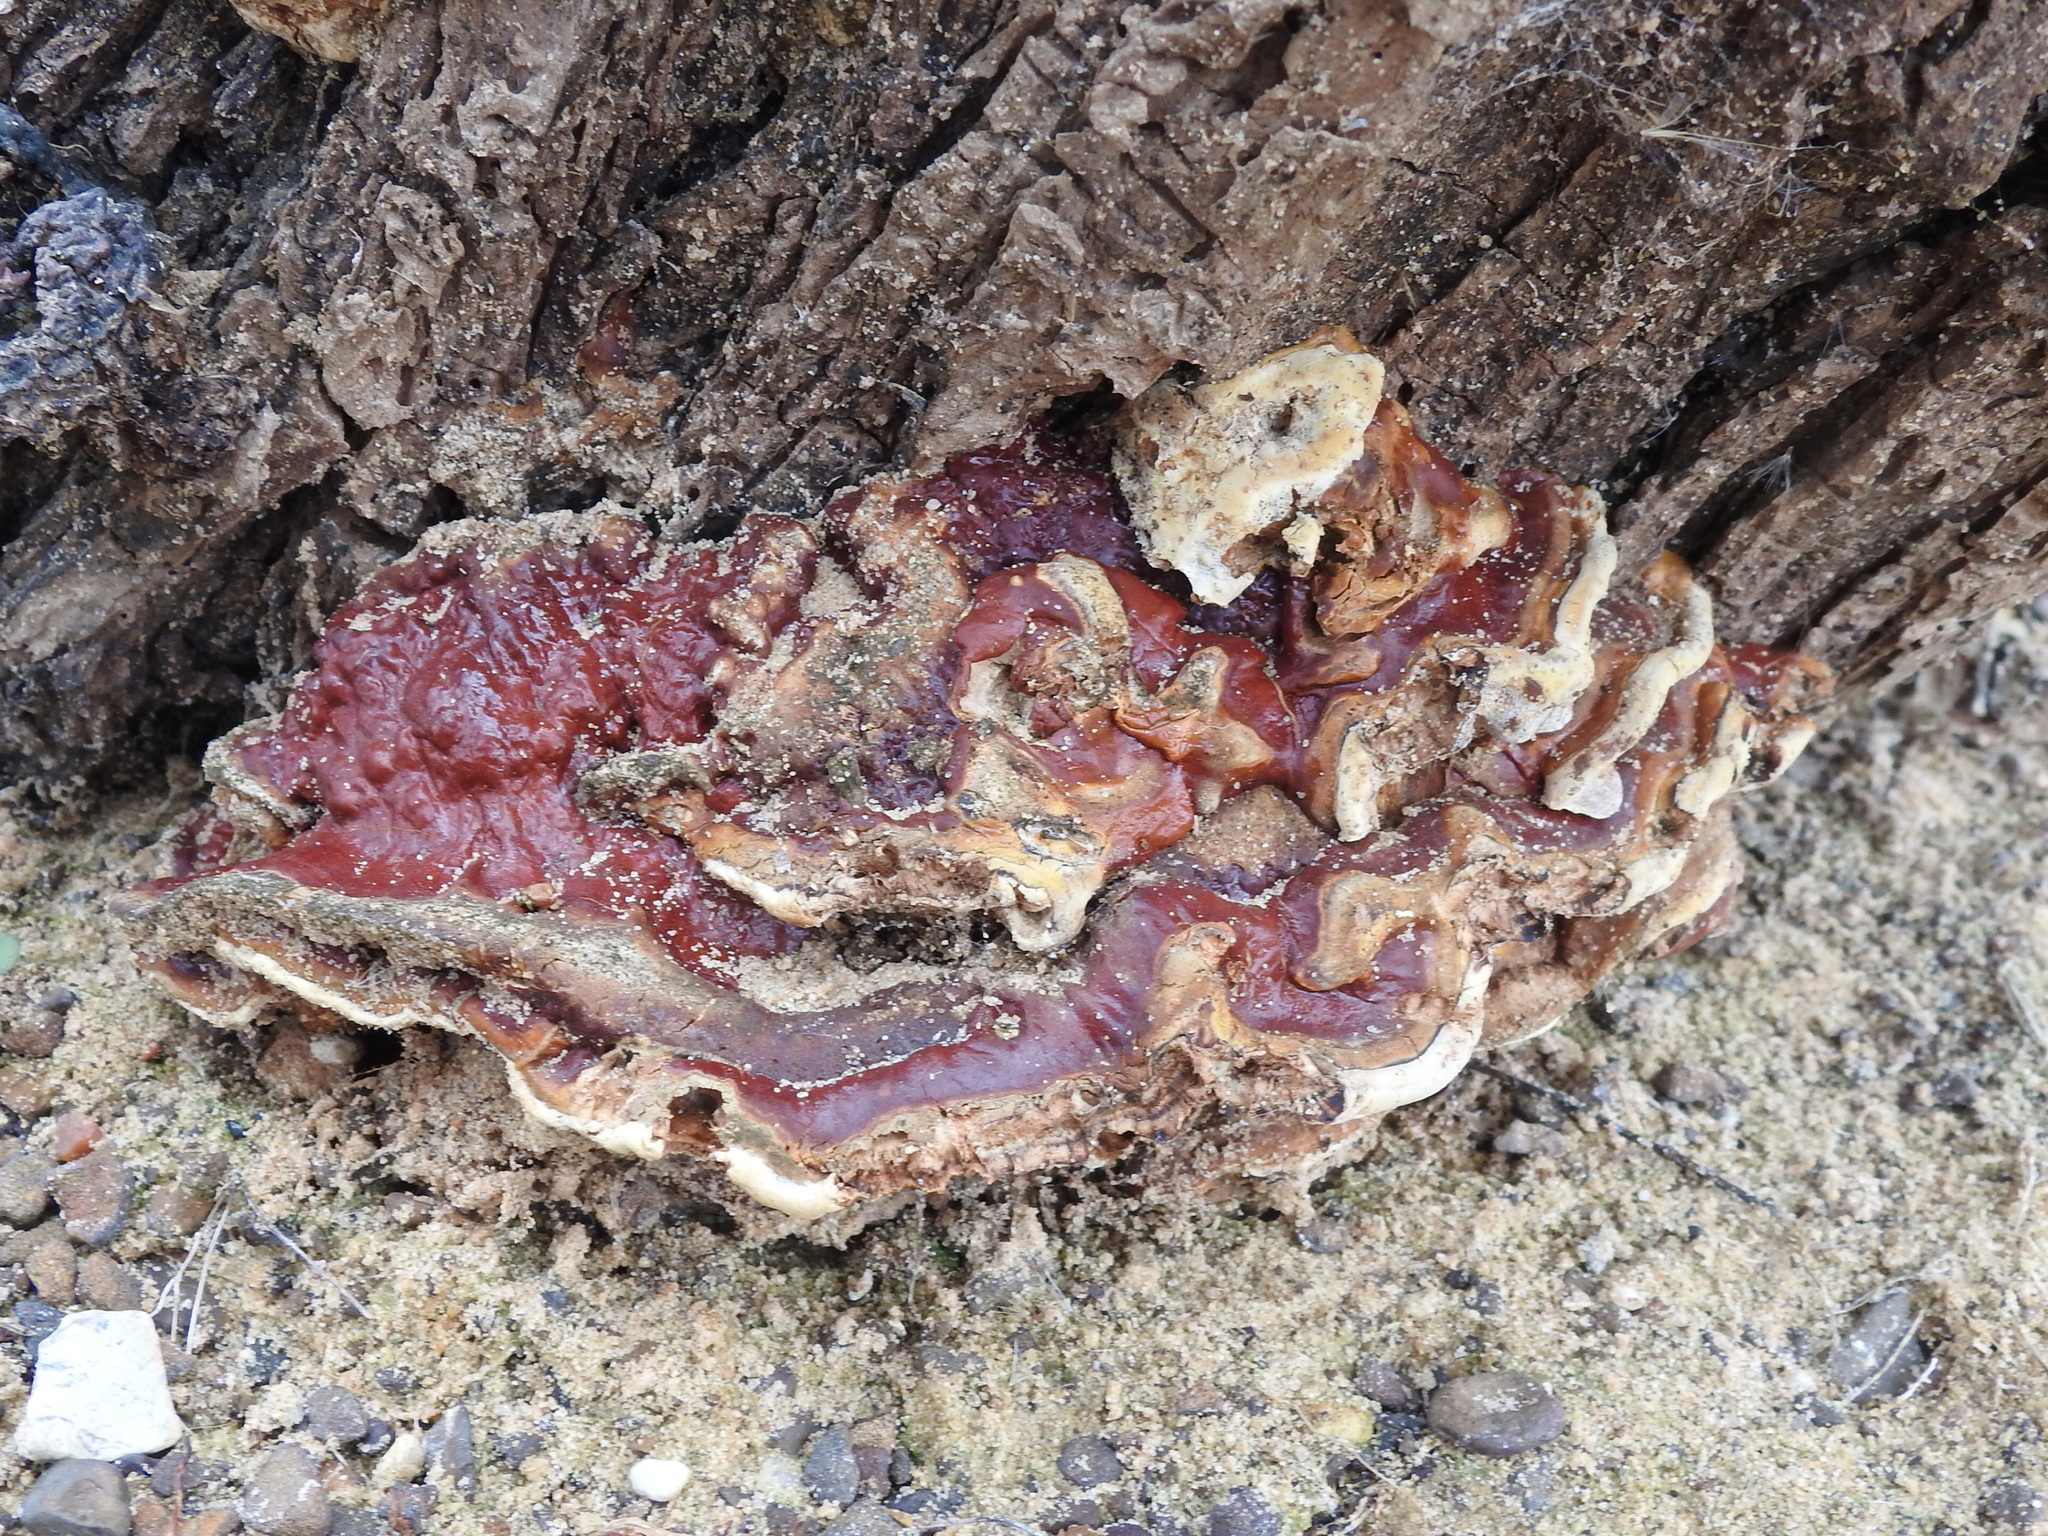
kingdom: Fungi
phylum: Basidiomycota
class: Agaricomycetes
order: Polyporales
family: Polyporaceae
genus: Ganoderma
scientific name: Ganoderma resinaceum
